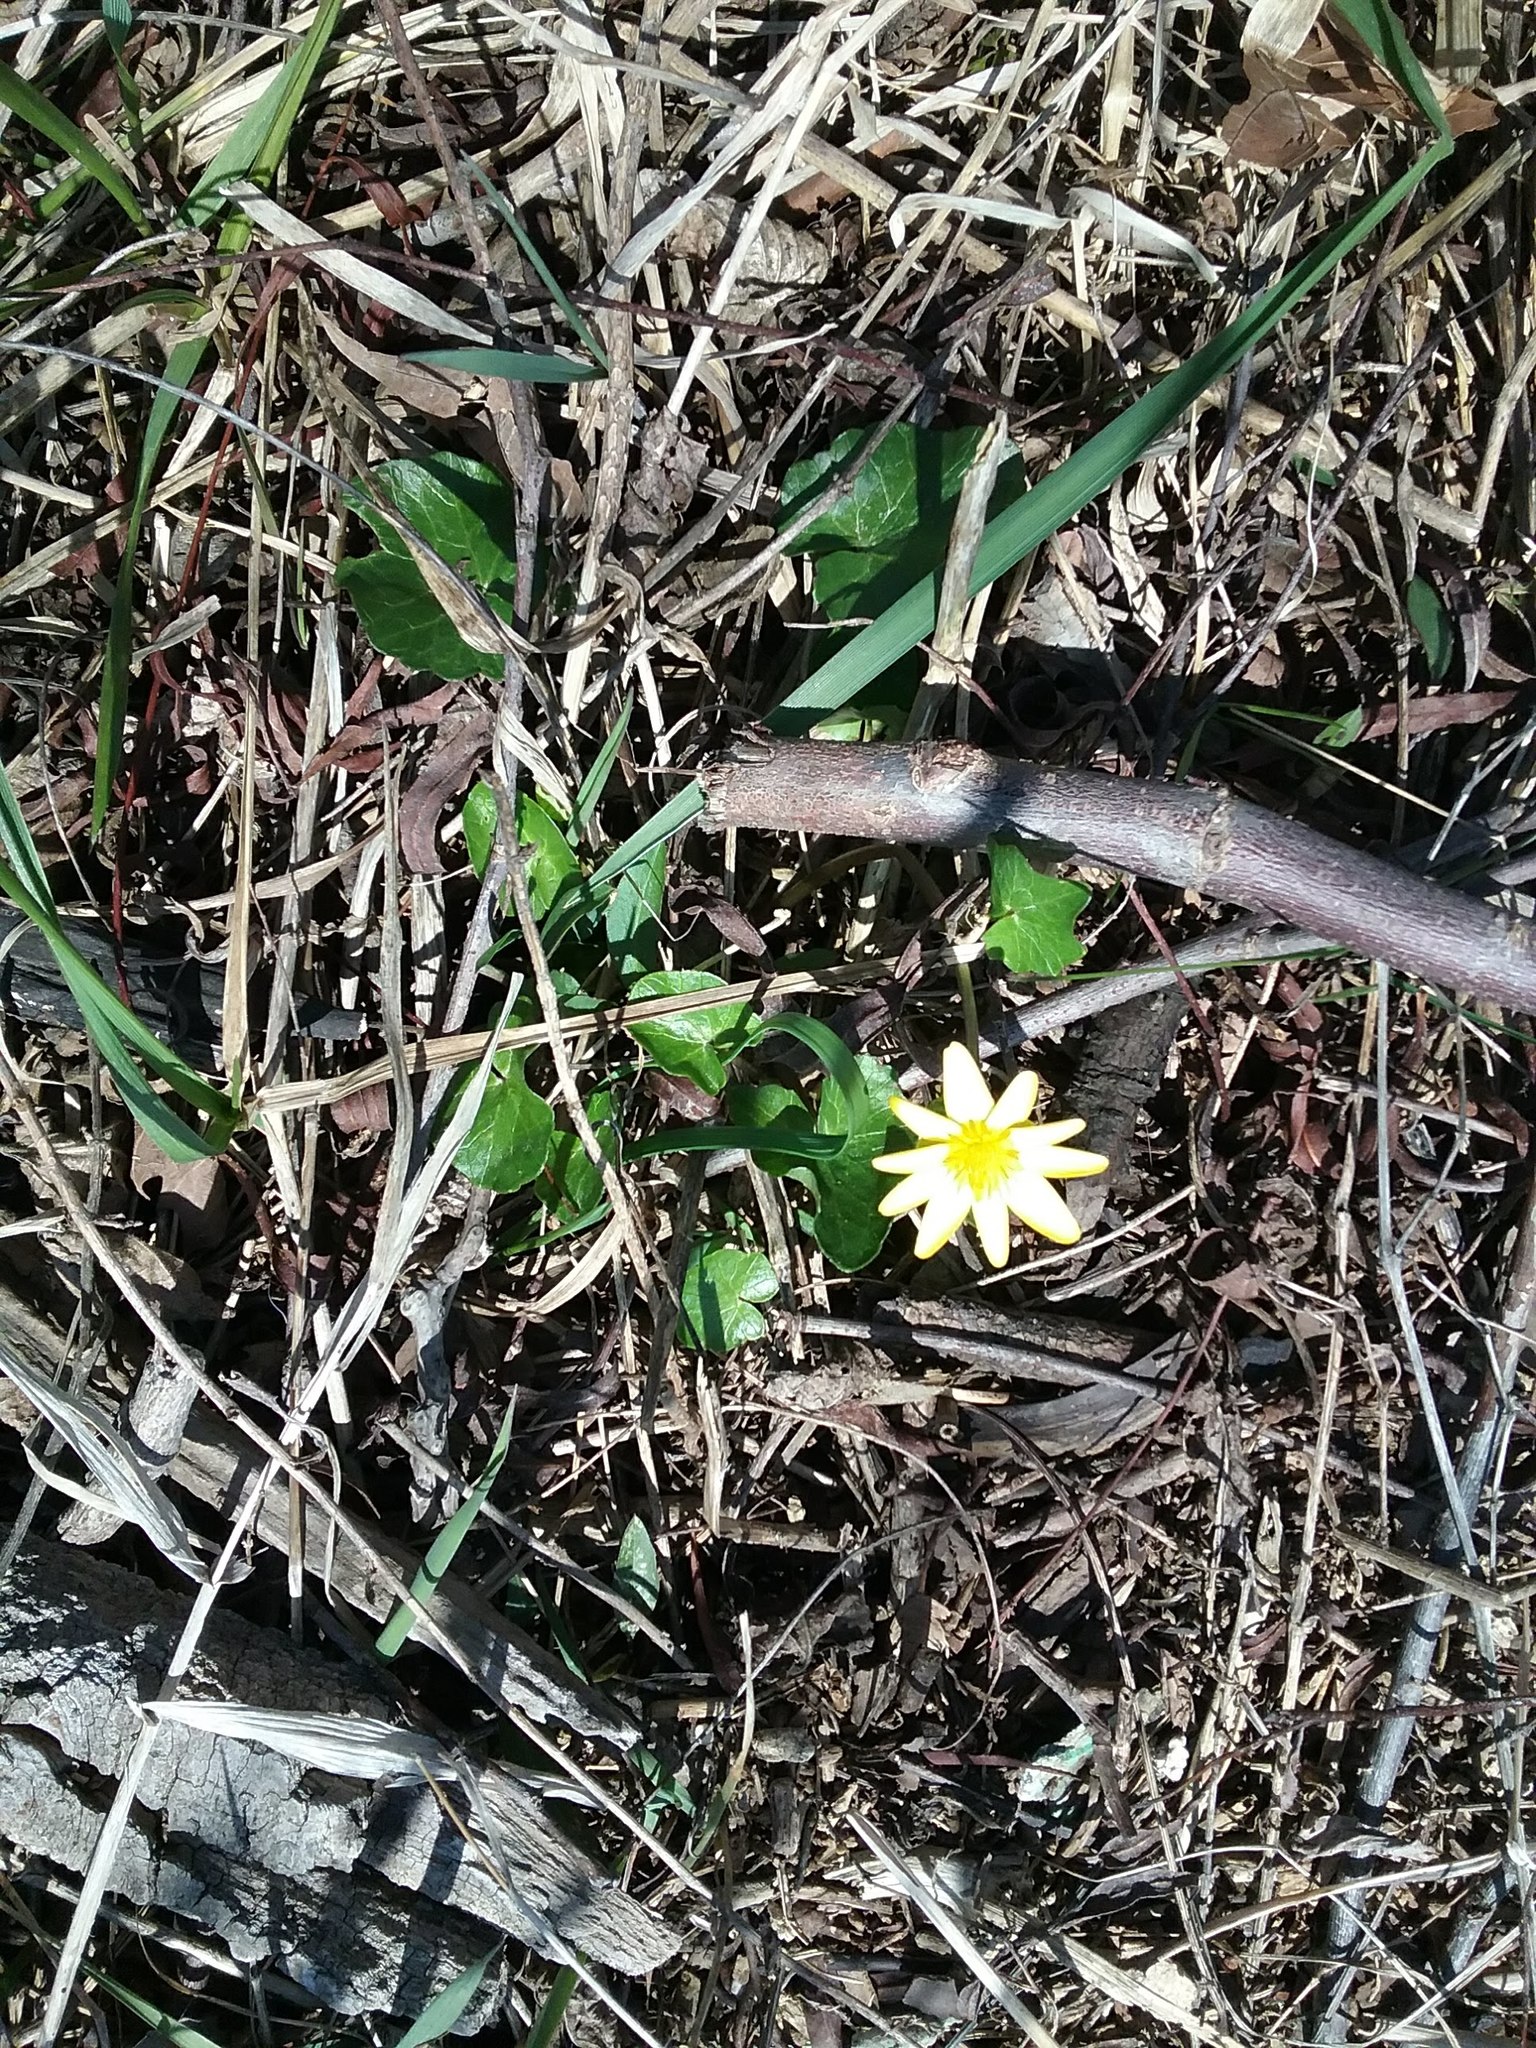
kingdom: Plantae
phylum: Tracheophyta
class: Magnoliopsida
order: Ranunculales
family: Ranunculaceae
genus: Ficaria
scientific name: Ficaria verna
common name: Lesser celandine
